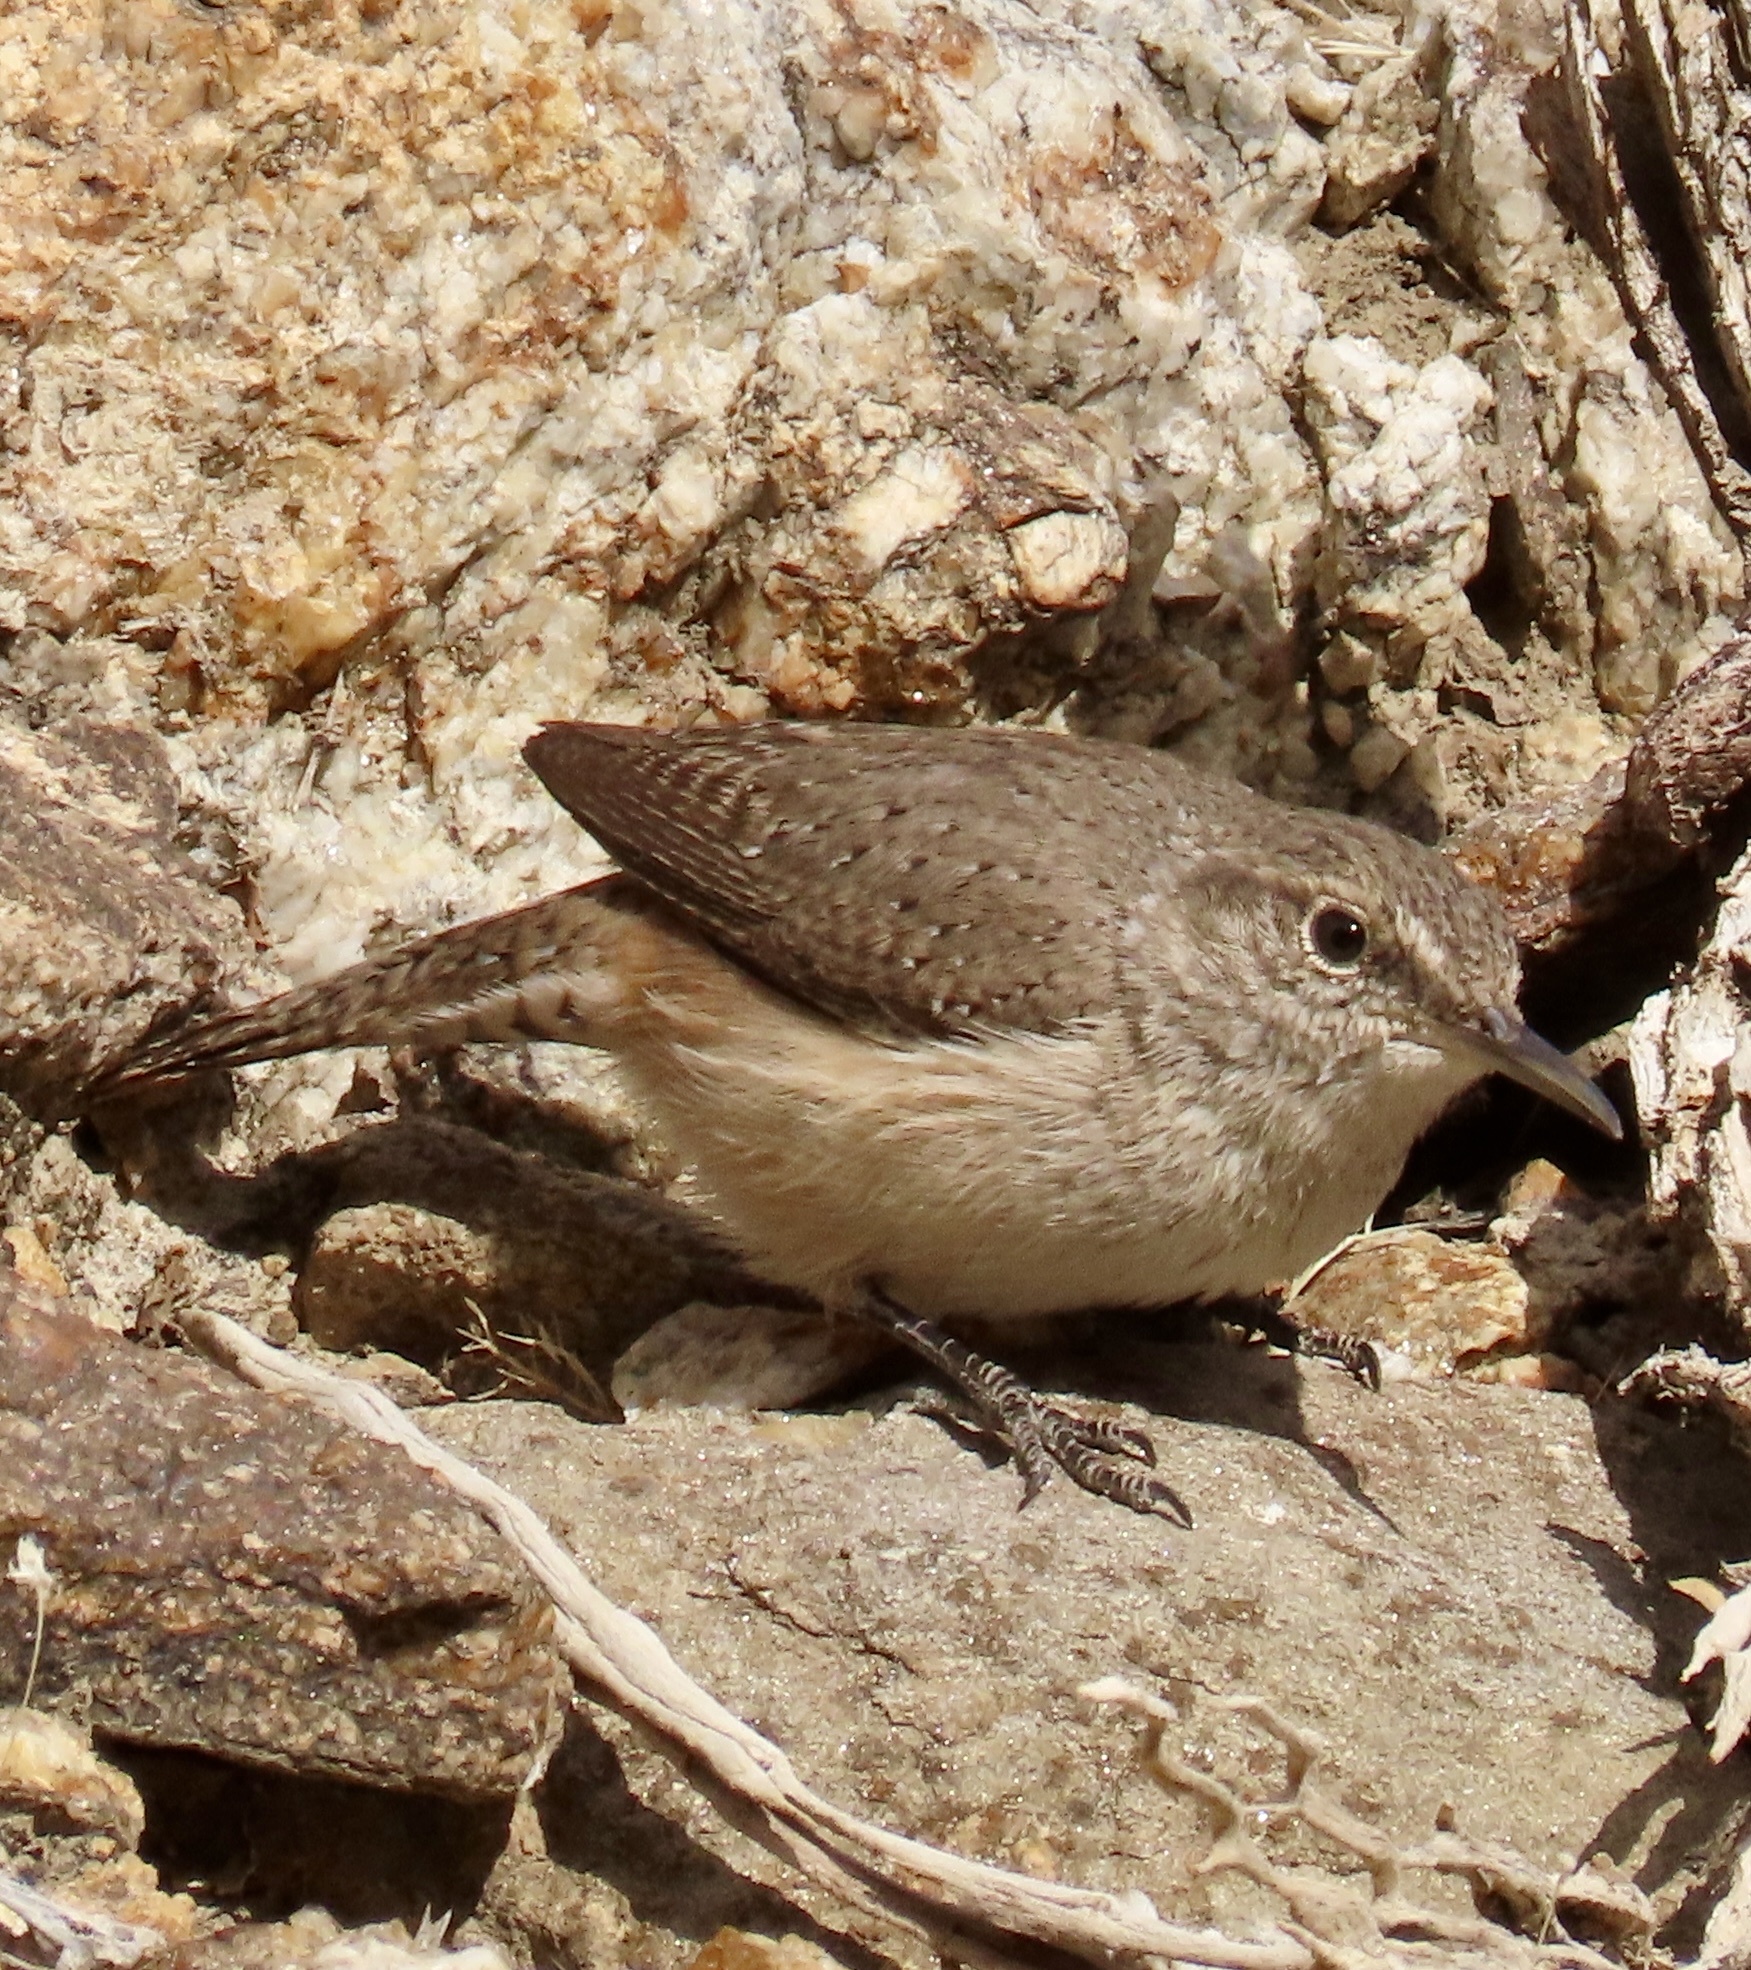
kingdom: Animalia
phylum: Chordata
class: Aves
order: Passeriformes
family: Troglodytidae
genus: Salpinctes
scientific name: Salpinctes obsoletus
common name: Rock wren
